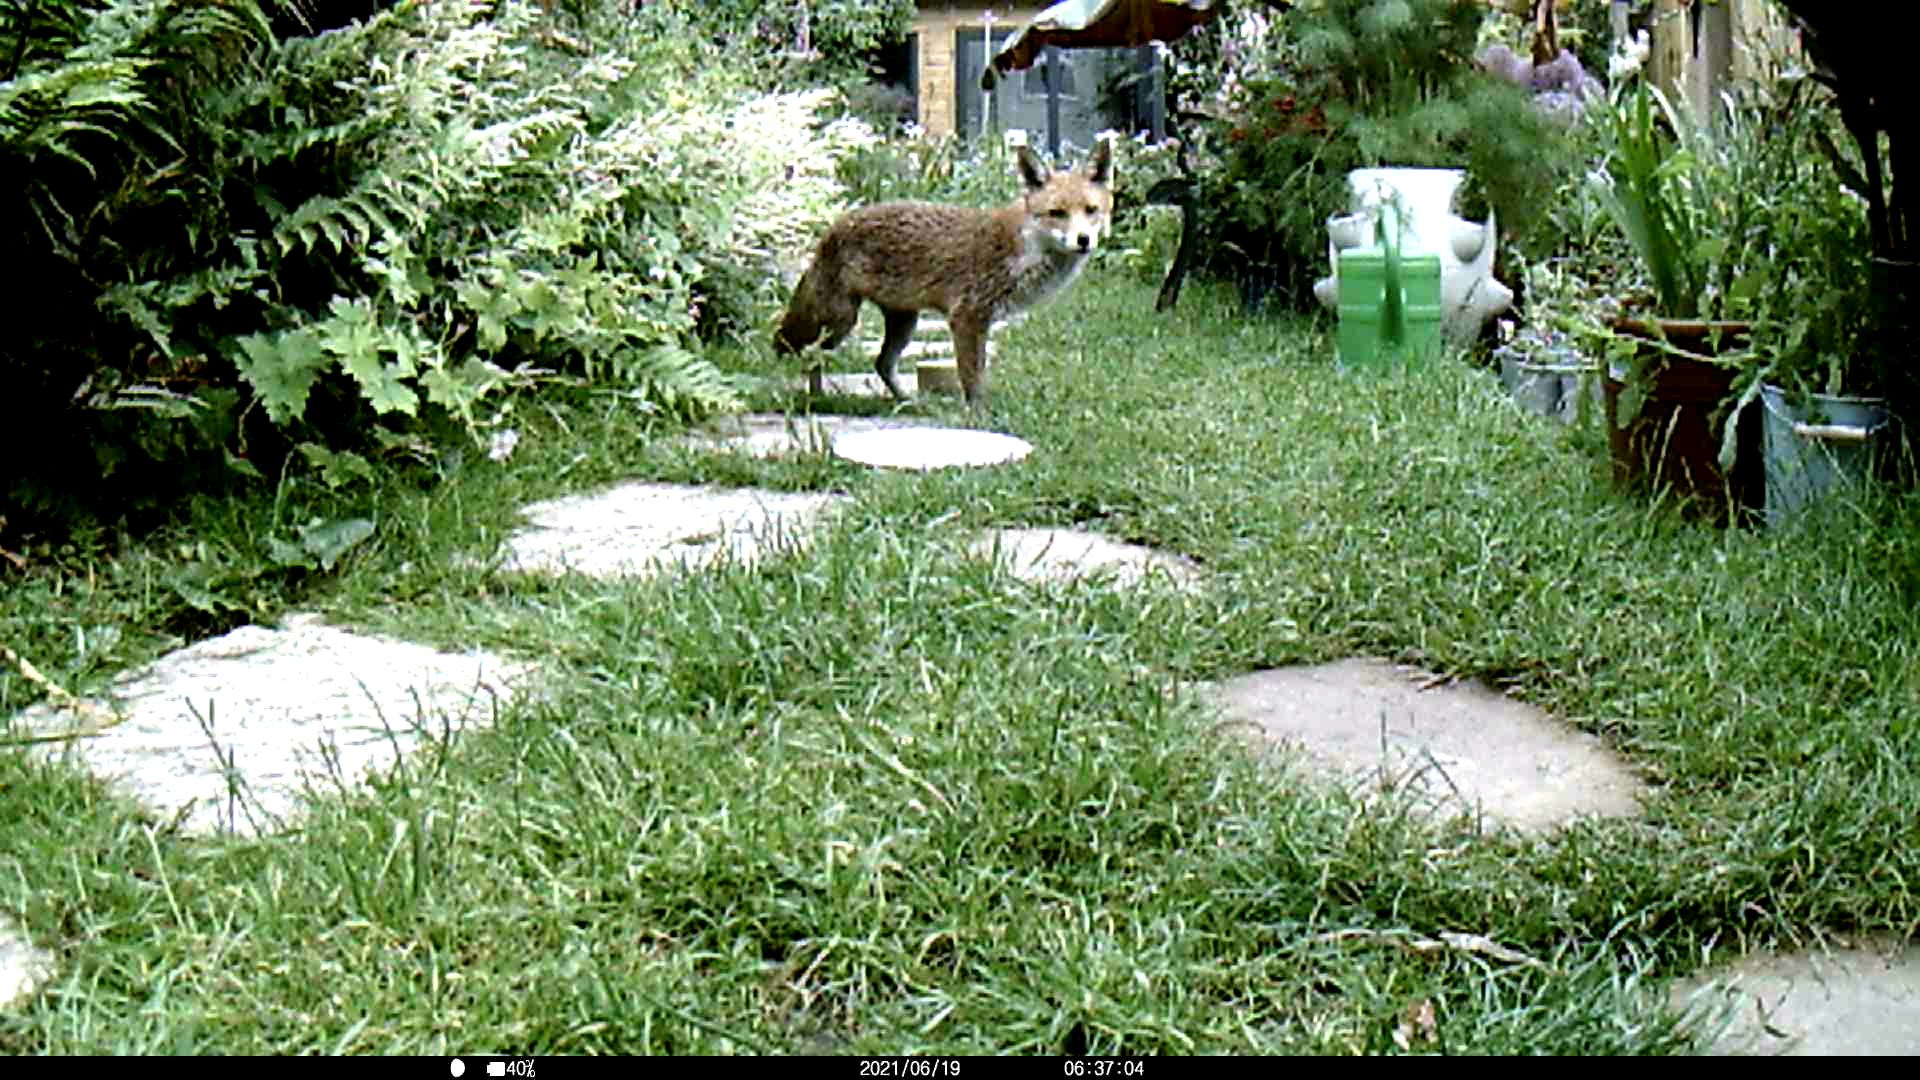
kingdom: Animalia
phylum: Chordata
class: Mammalia
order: Carnivora
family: Canidae
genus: Vulpes
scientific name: Vulpes vulpes
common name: Red fox
